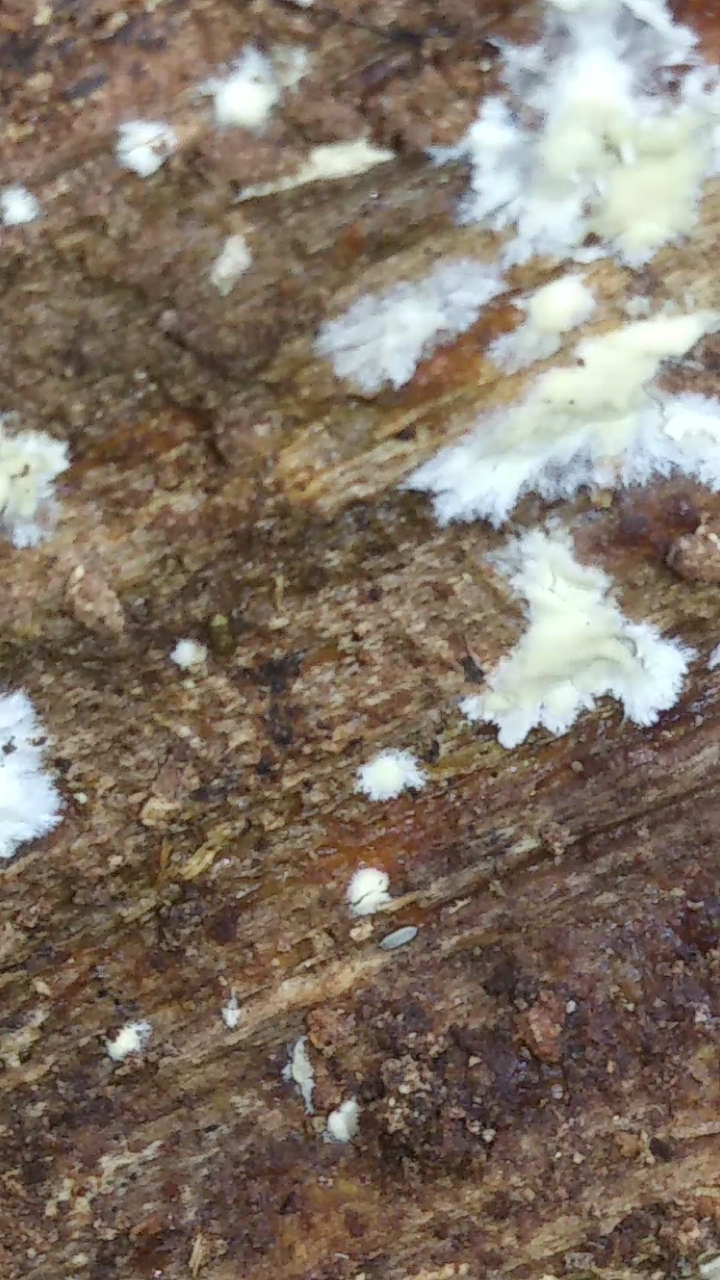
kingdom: Animalia
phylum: Arthropoda
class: Diplopoda
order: Polydesmida
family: Xystodesmidae
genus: Apheloria
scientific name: Apheloria virginiensis
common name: Black-and-gold flat millipede
